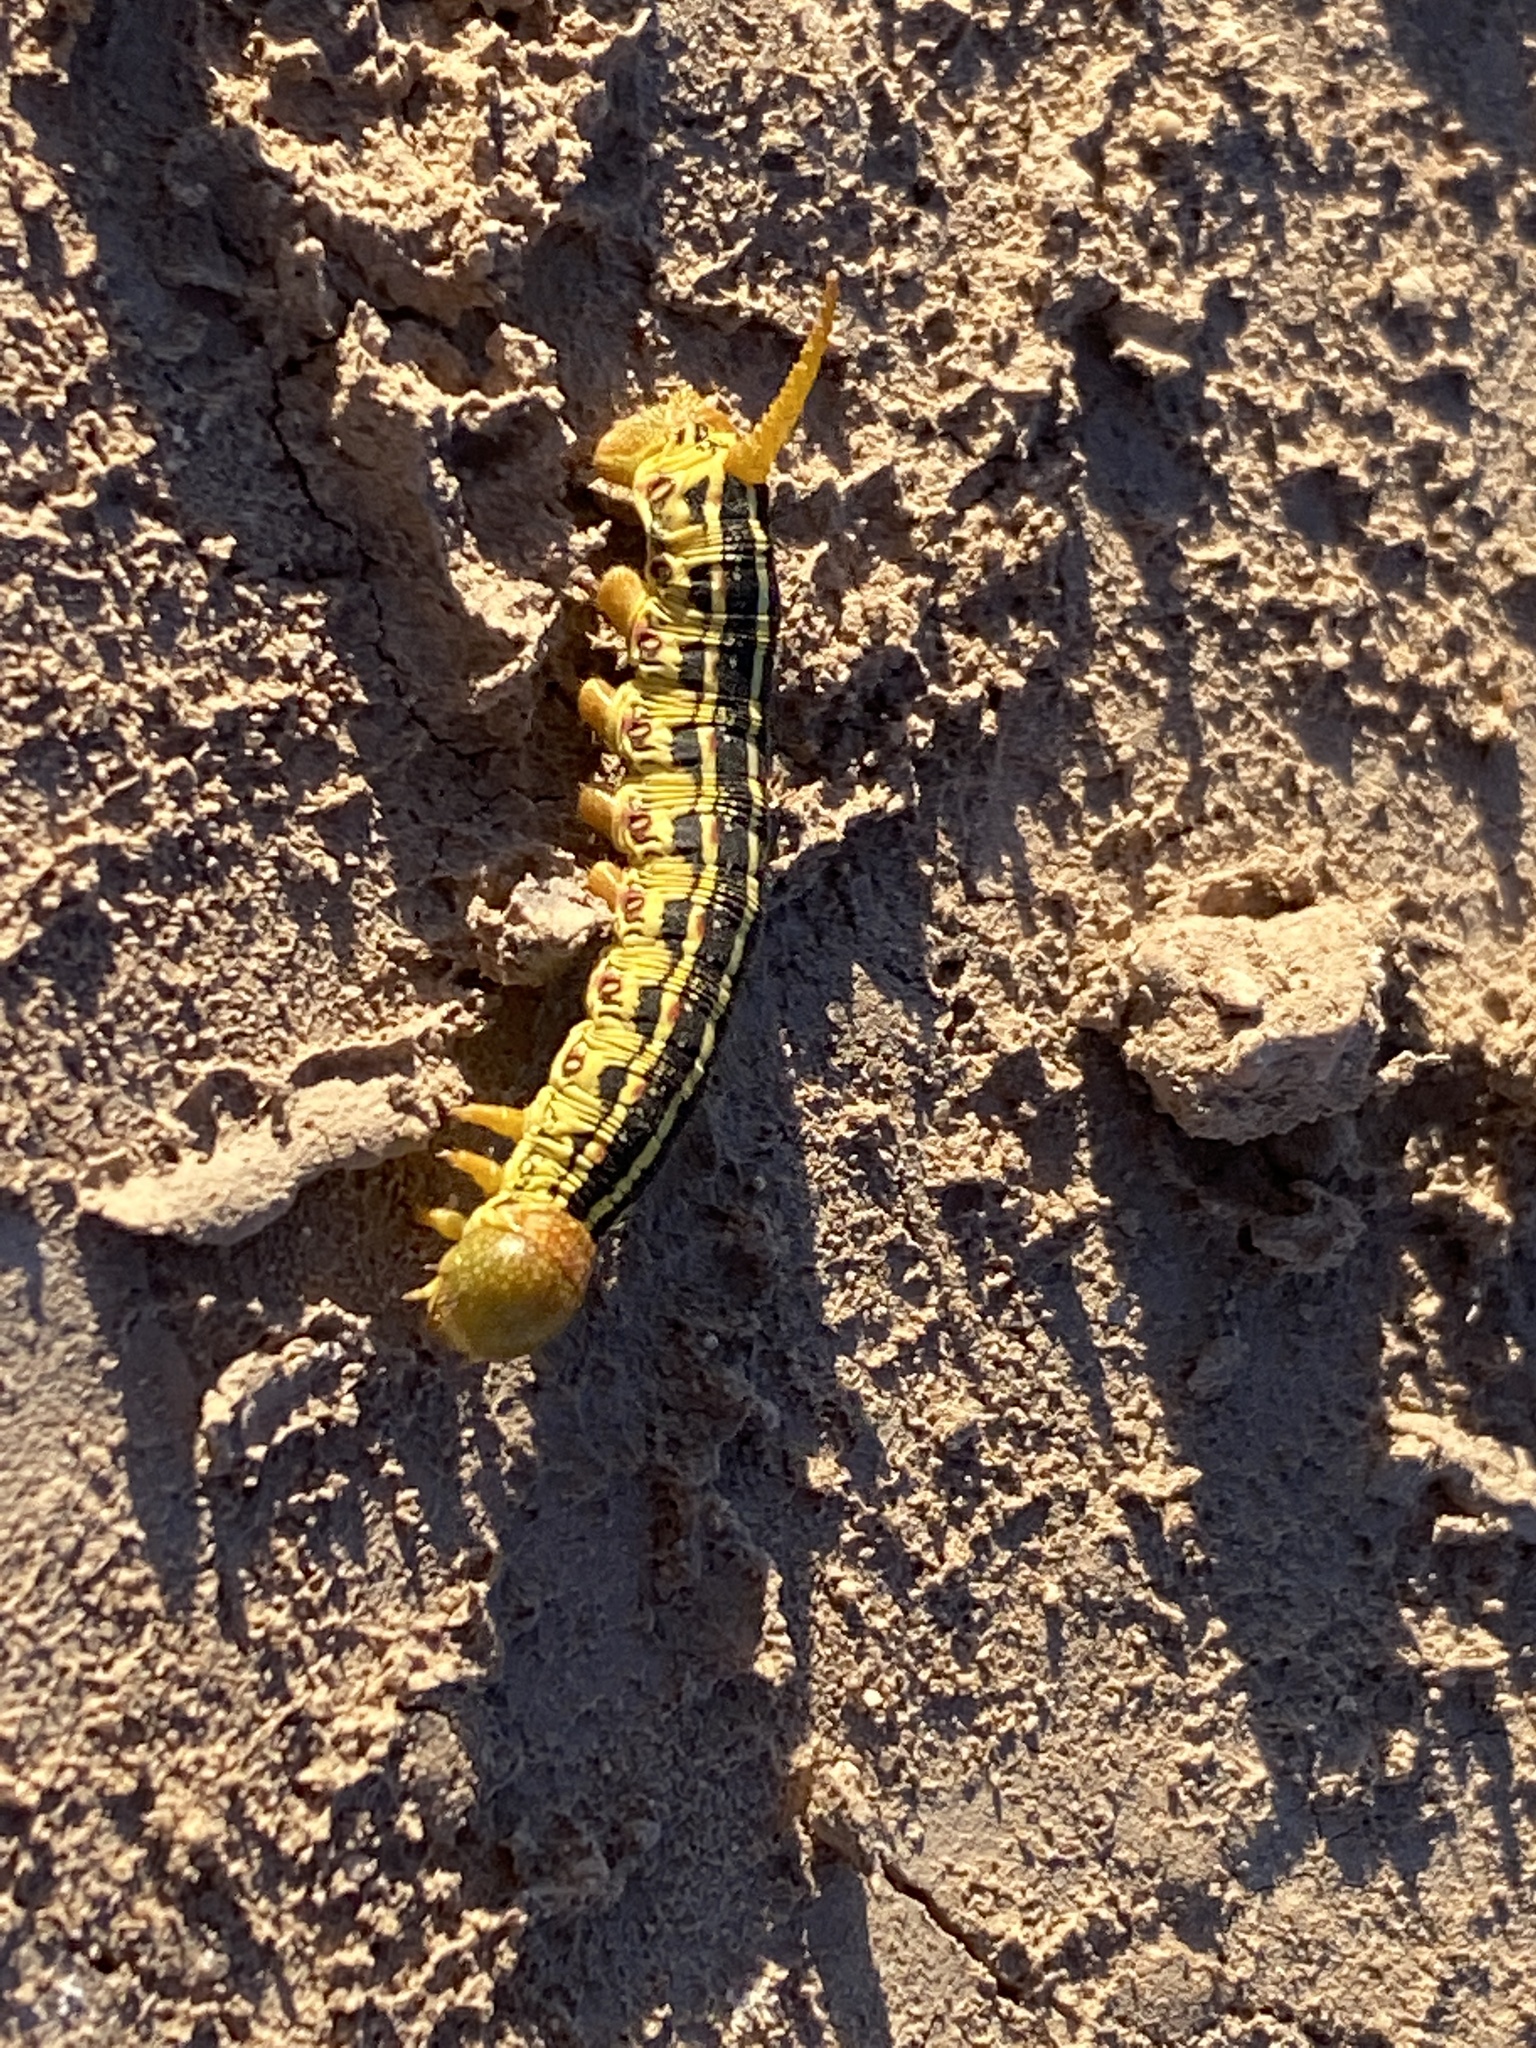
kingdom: Animalia
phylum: Arthropoda
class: Insecta
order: Lepidoptera
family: Sphingidae
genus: Hyles
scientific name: Hyles lineata
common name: White-lined sphinx
